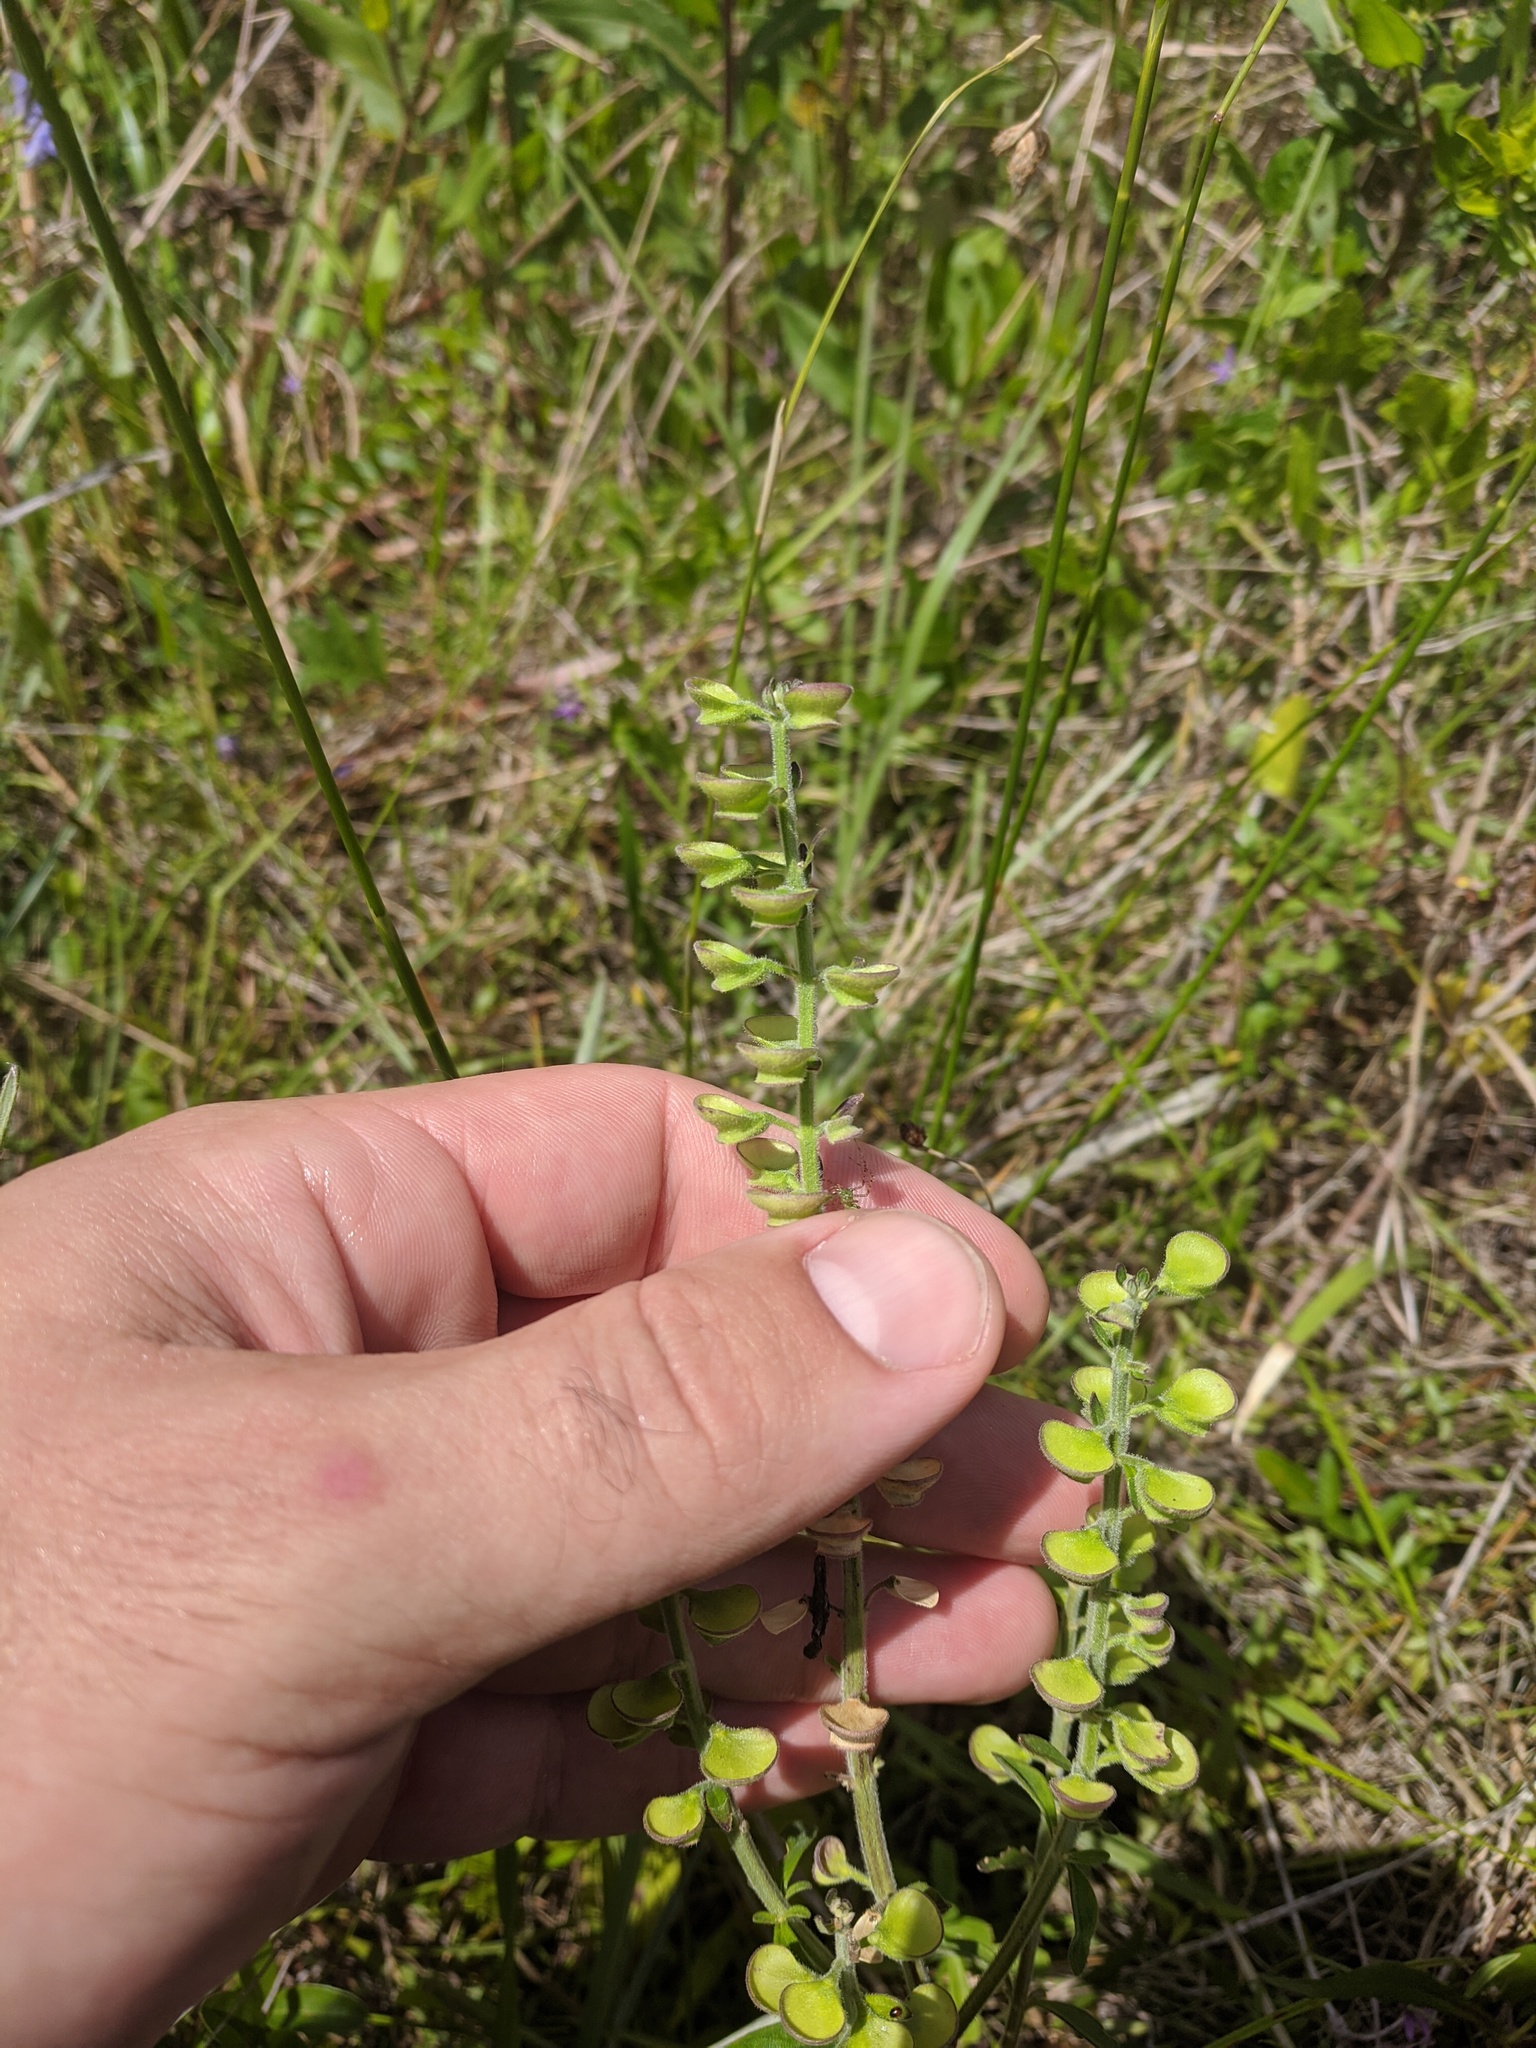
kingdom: Plantae
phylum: Tracheophyta
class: Magnoliopsida
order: Lamiales
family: Lamiaceae
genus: Scutellaria
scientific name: Scutellaria
